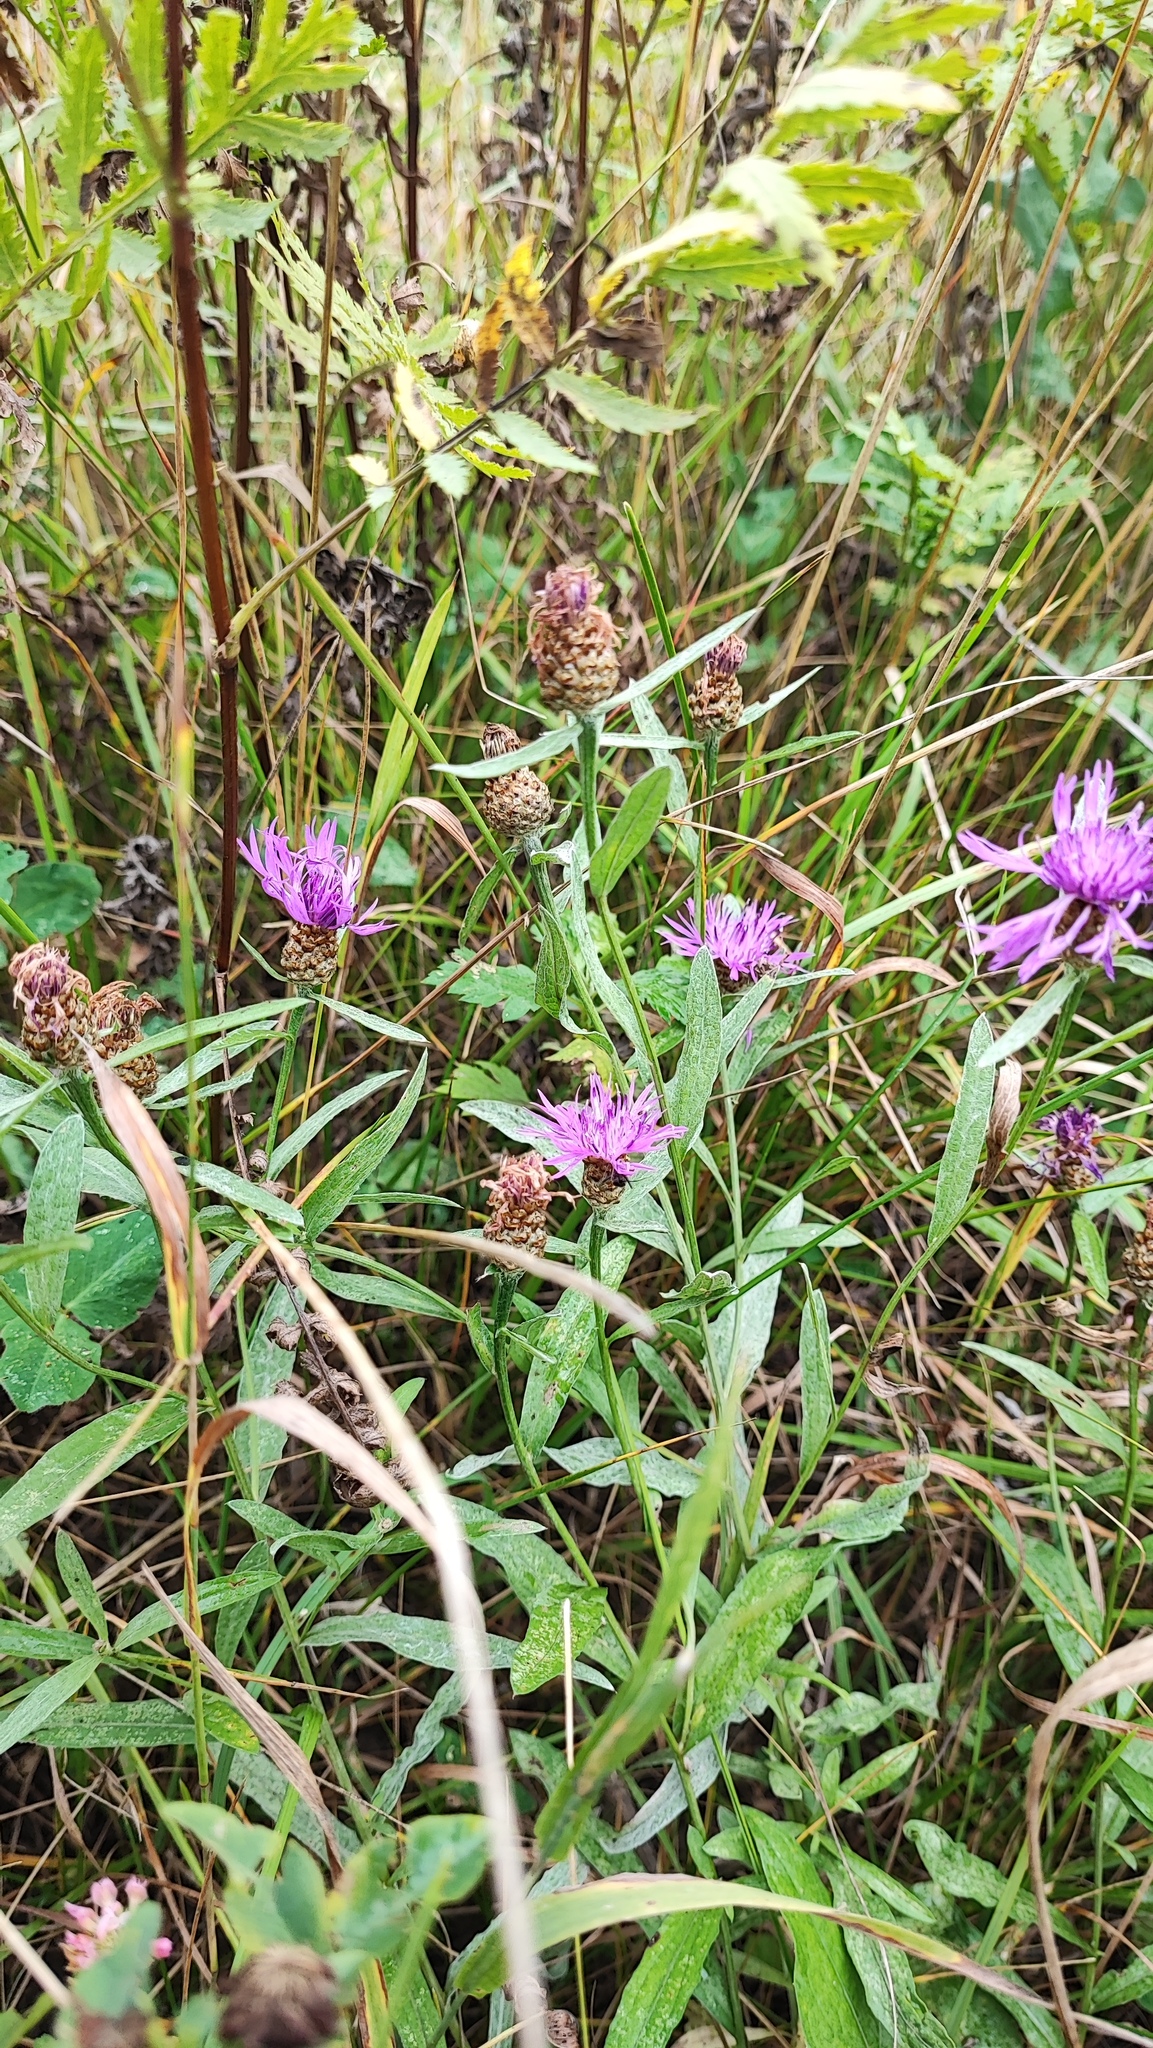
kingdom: Plantae
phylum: Tracheophyta
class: Magnoliopsida
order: Asterales
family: Asteraceae
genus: Centaurea
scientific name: Centaurea jacea
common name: Brown knapweed
